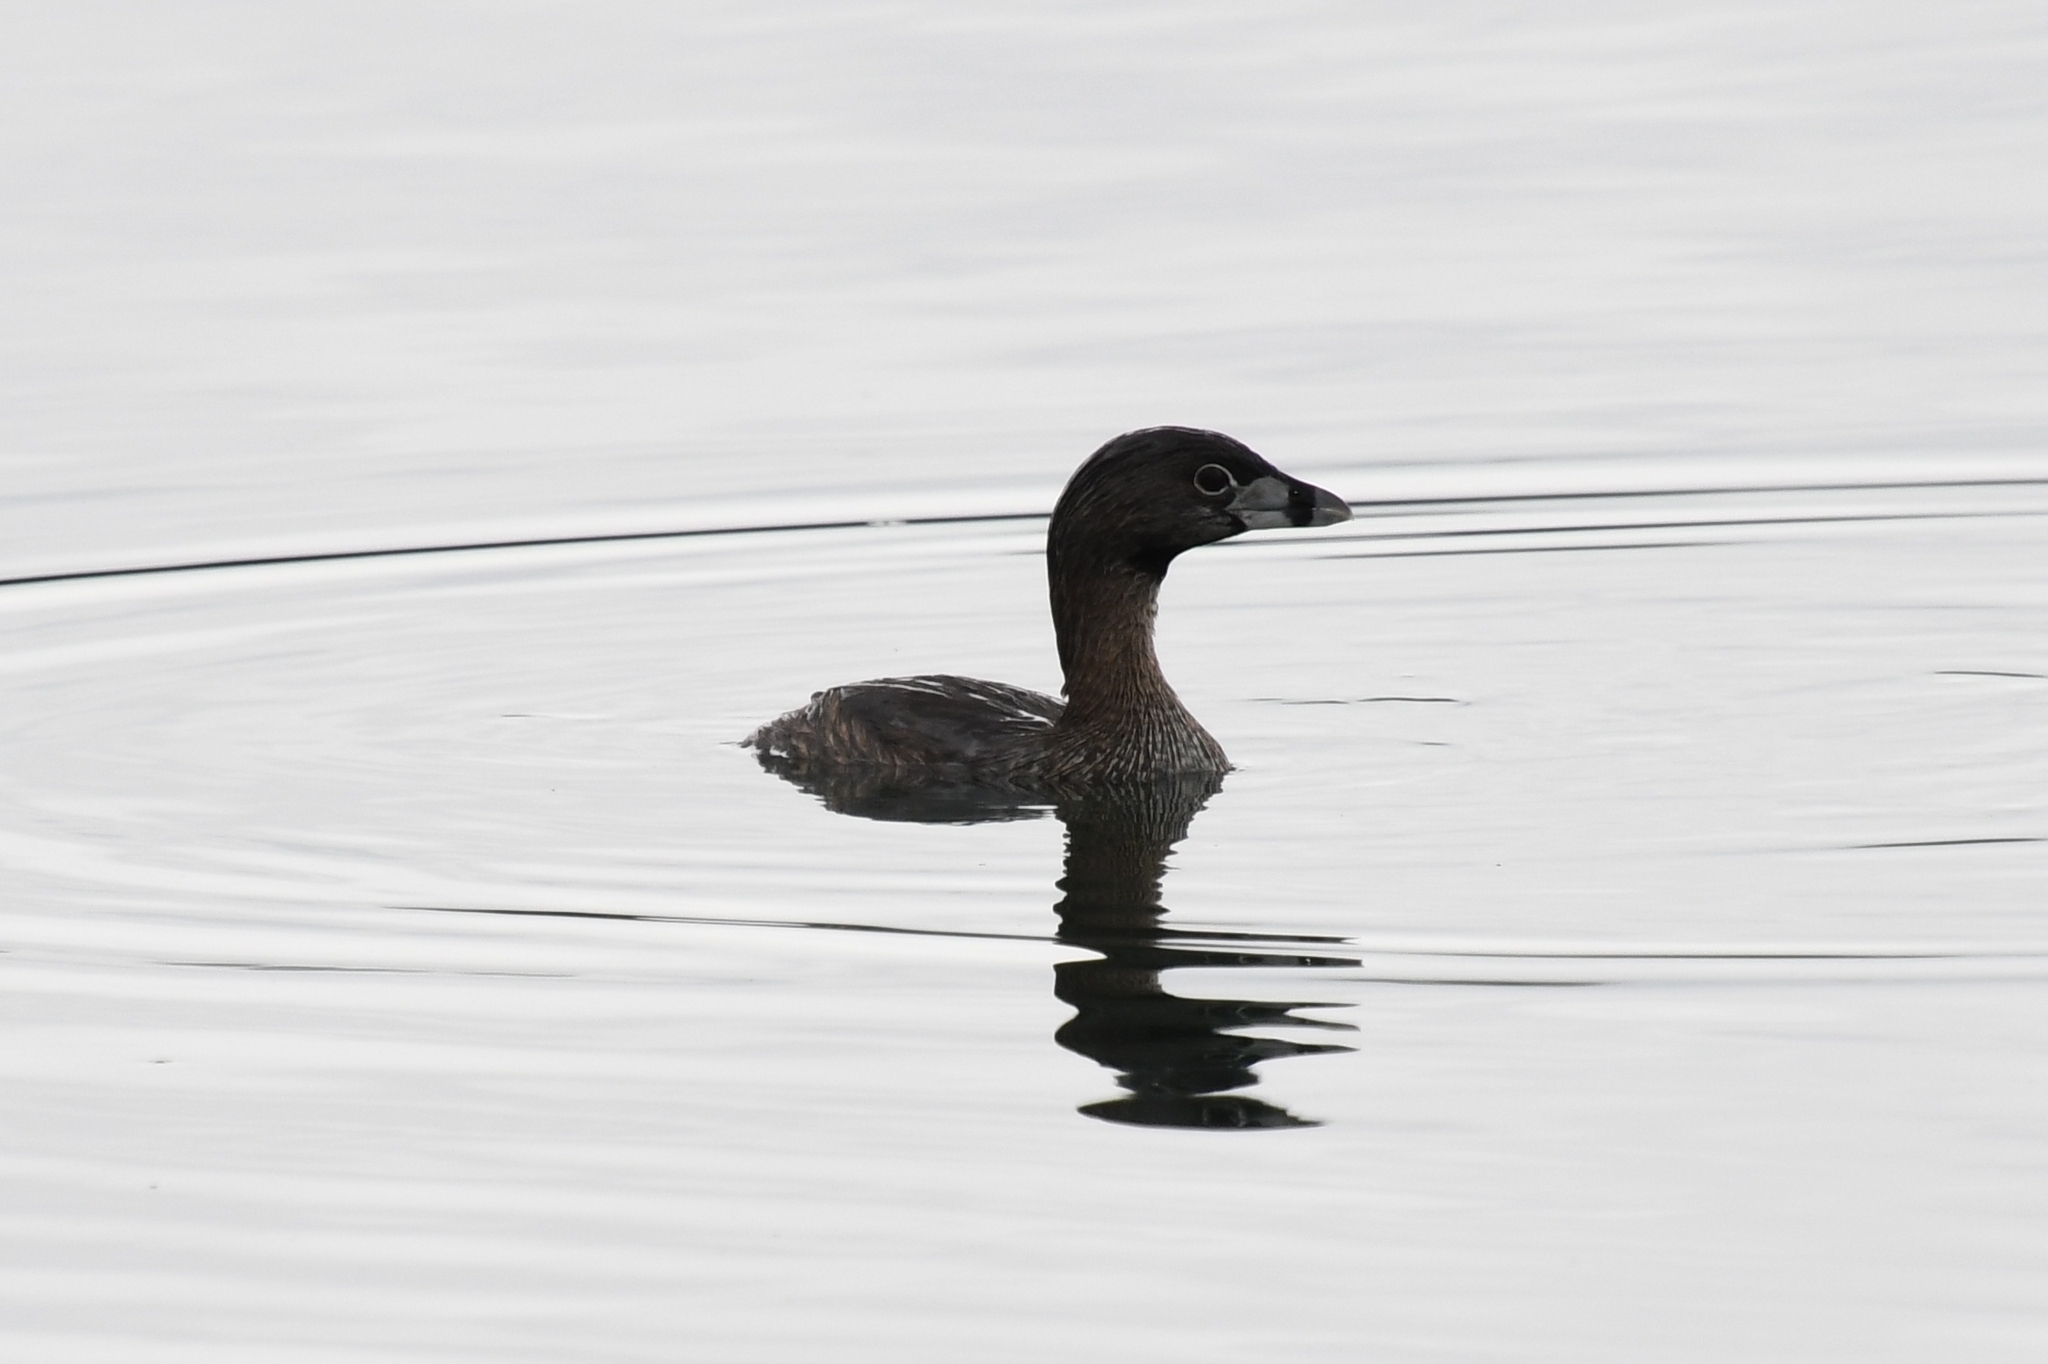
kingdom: Animalia
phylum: Chordata
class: Aves
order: Podicipediformes
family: Podicipedidae
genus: Podilymbus
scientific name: Podilymbus podiceps
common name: Pied-billed grebe
